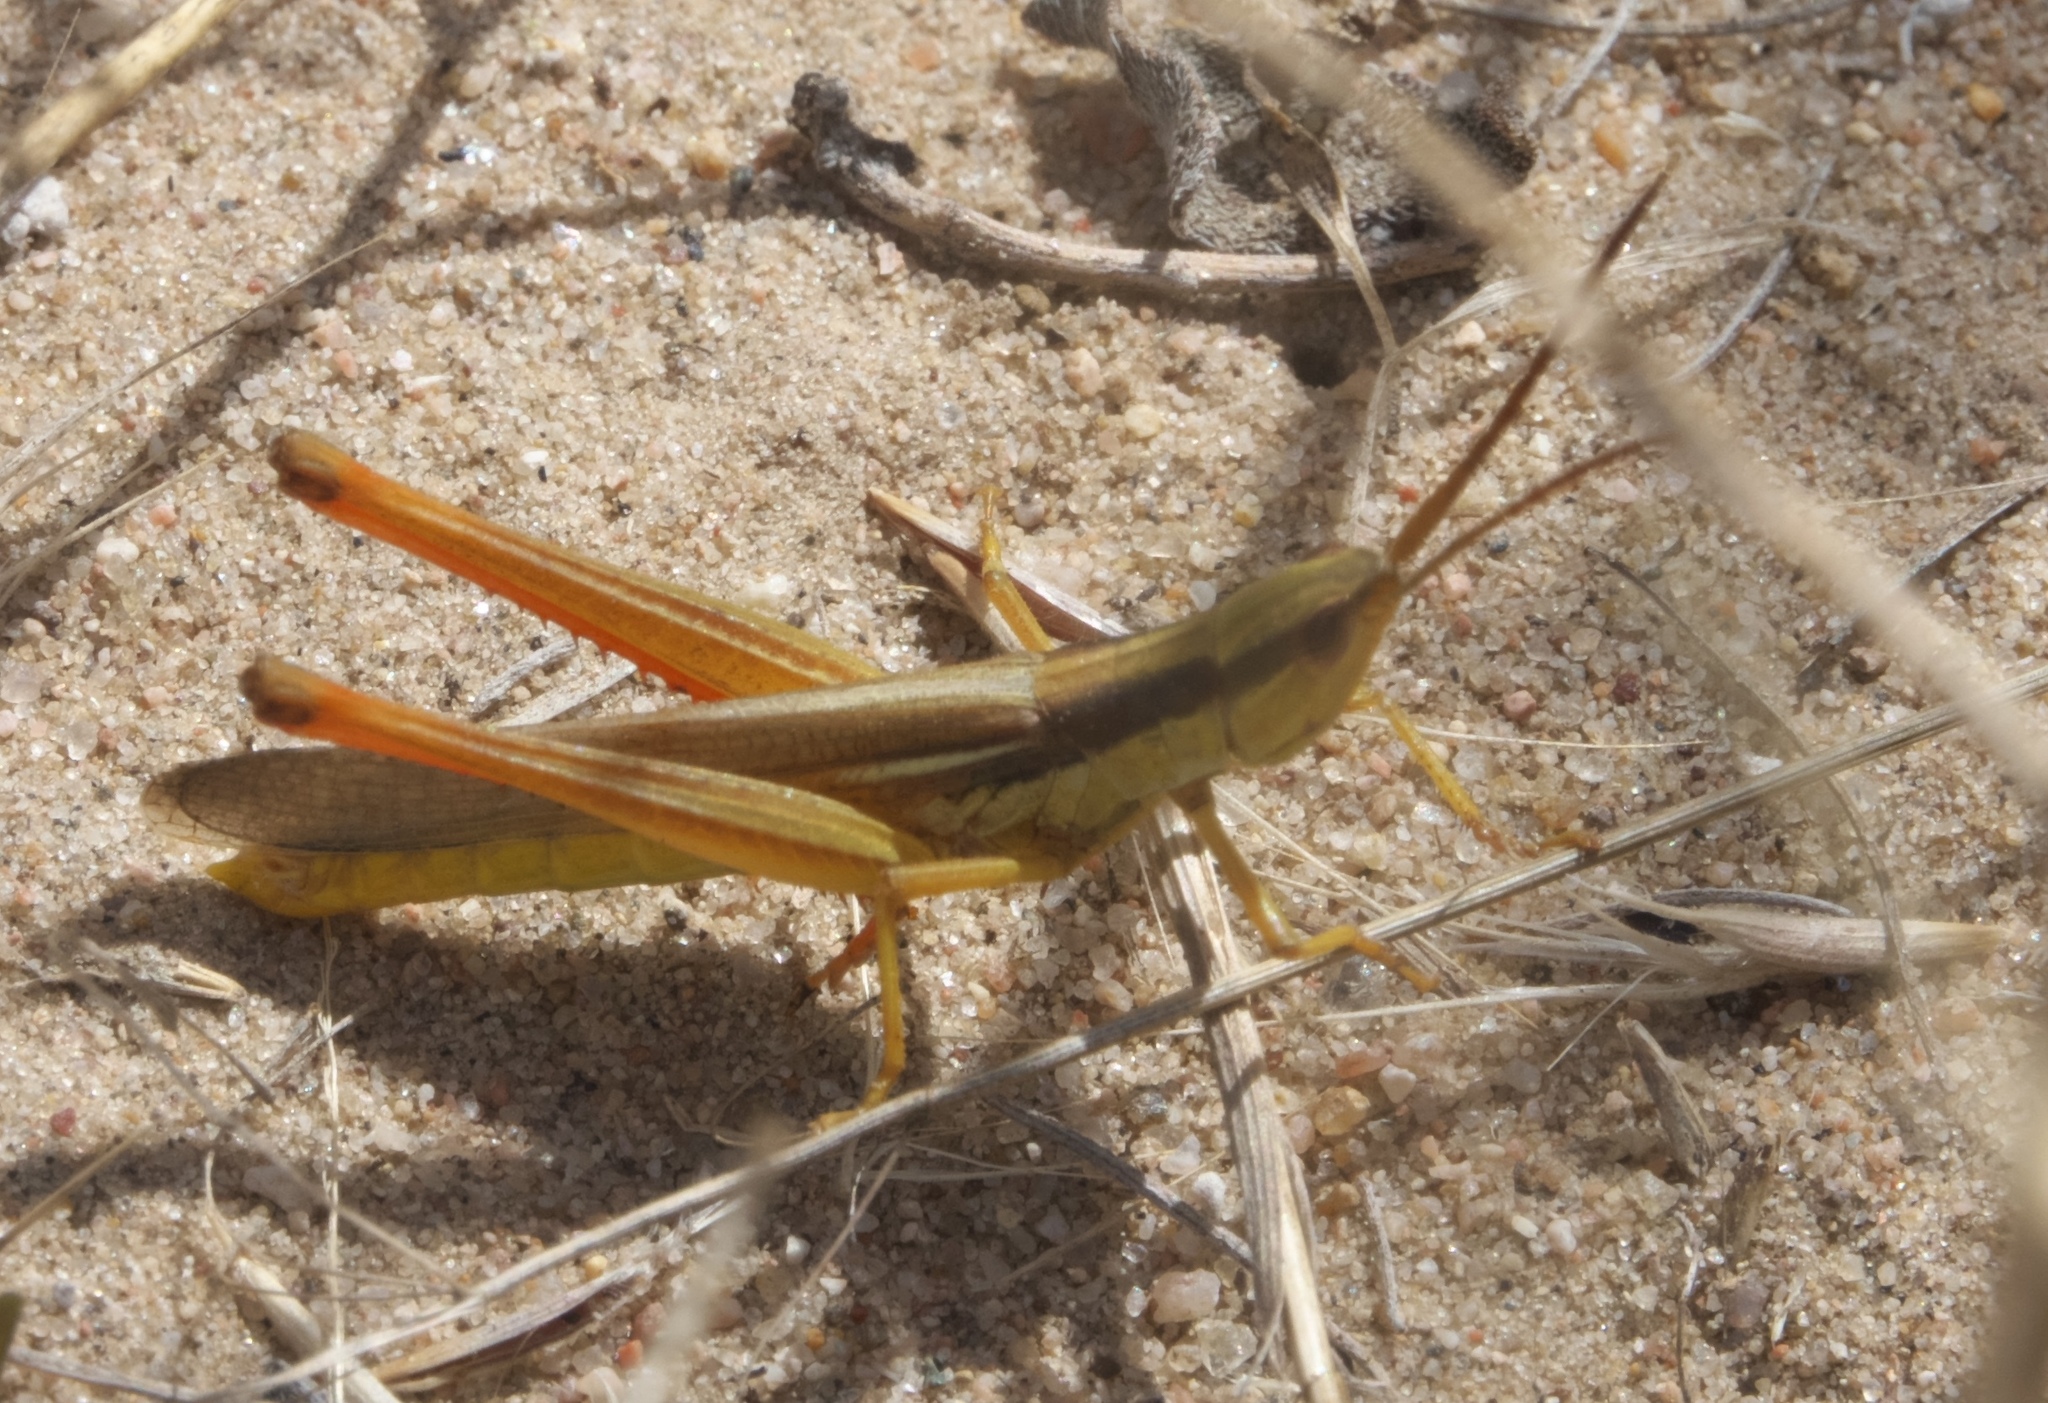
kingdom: Animalia
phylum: Arthropoda
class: Insecta
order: Orthoptera
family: Acrididae
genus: Mermiria
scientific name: Mermiria bivittata
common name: Two-striped mermiria grasshopper
